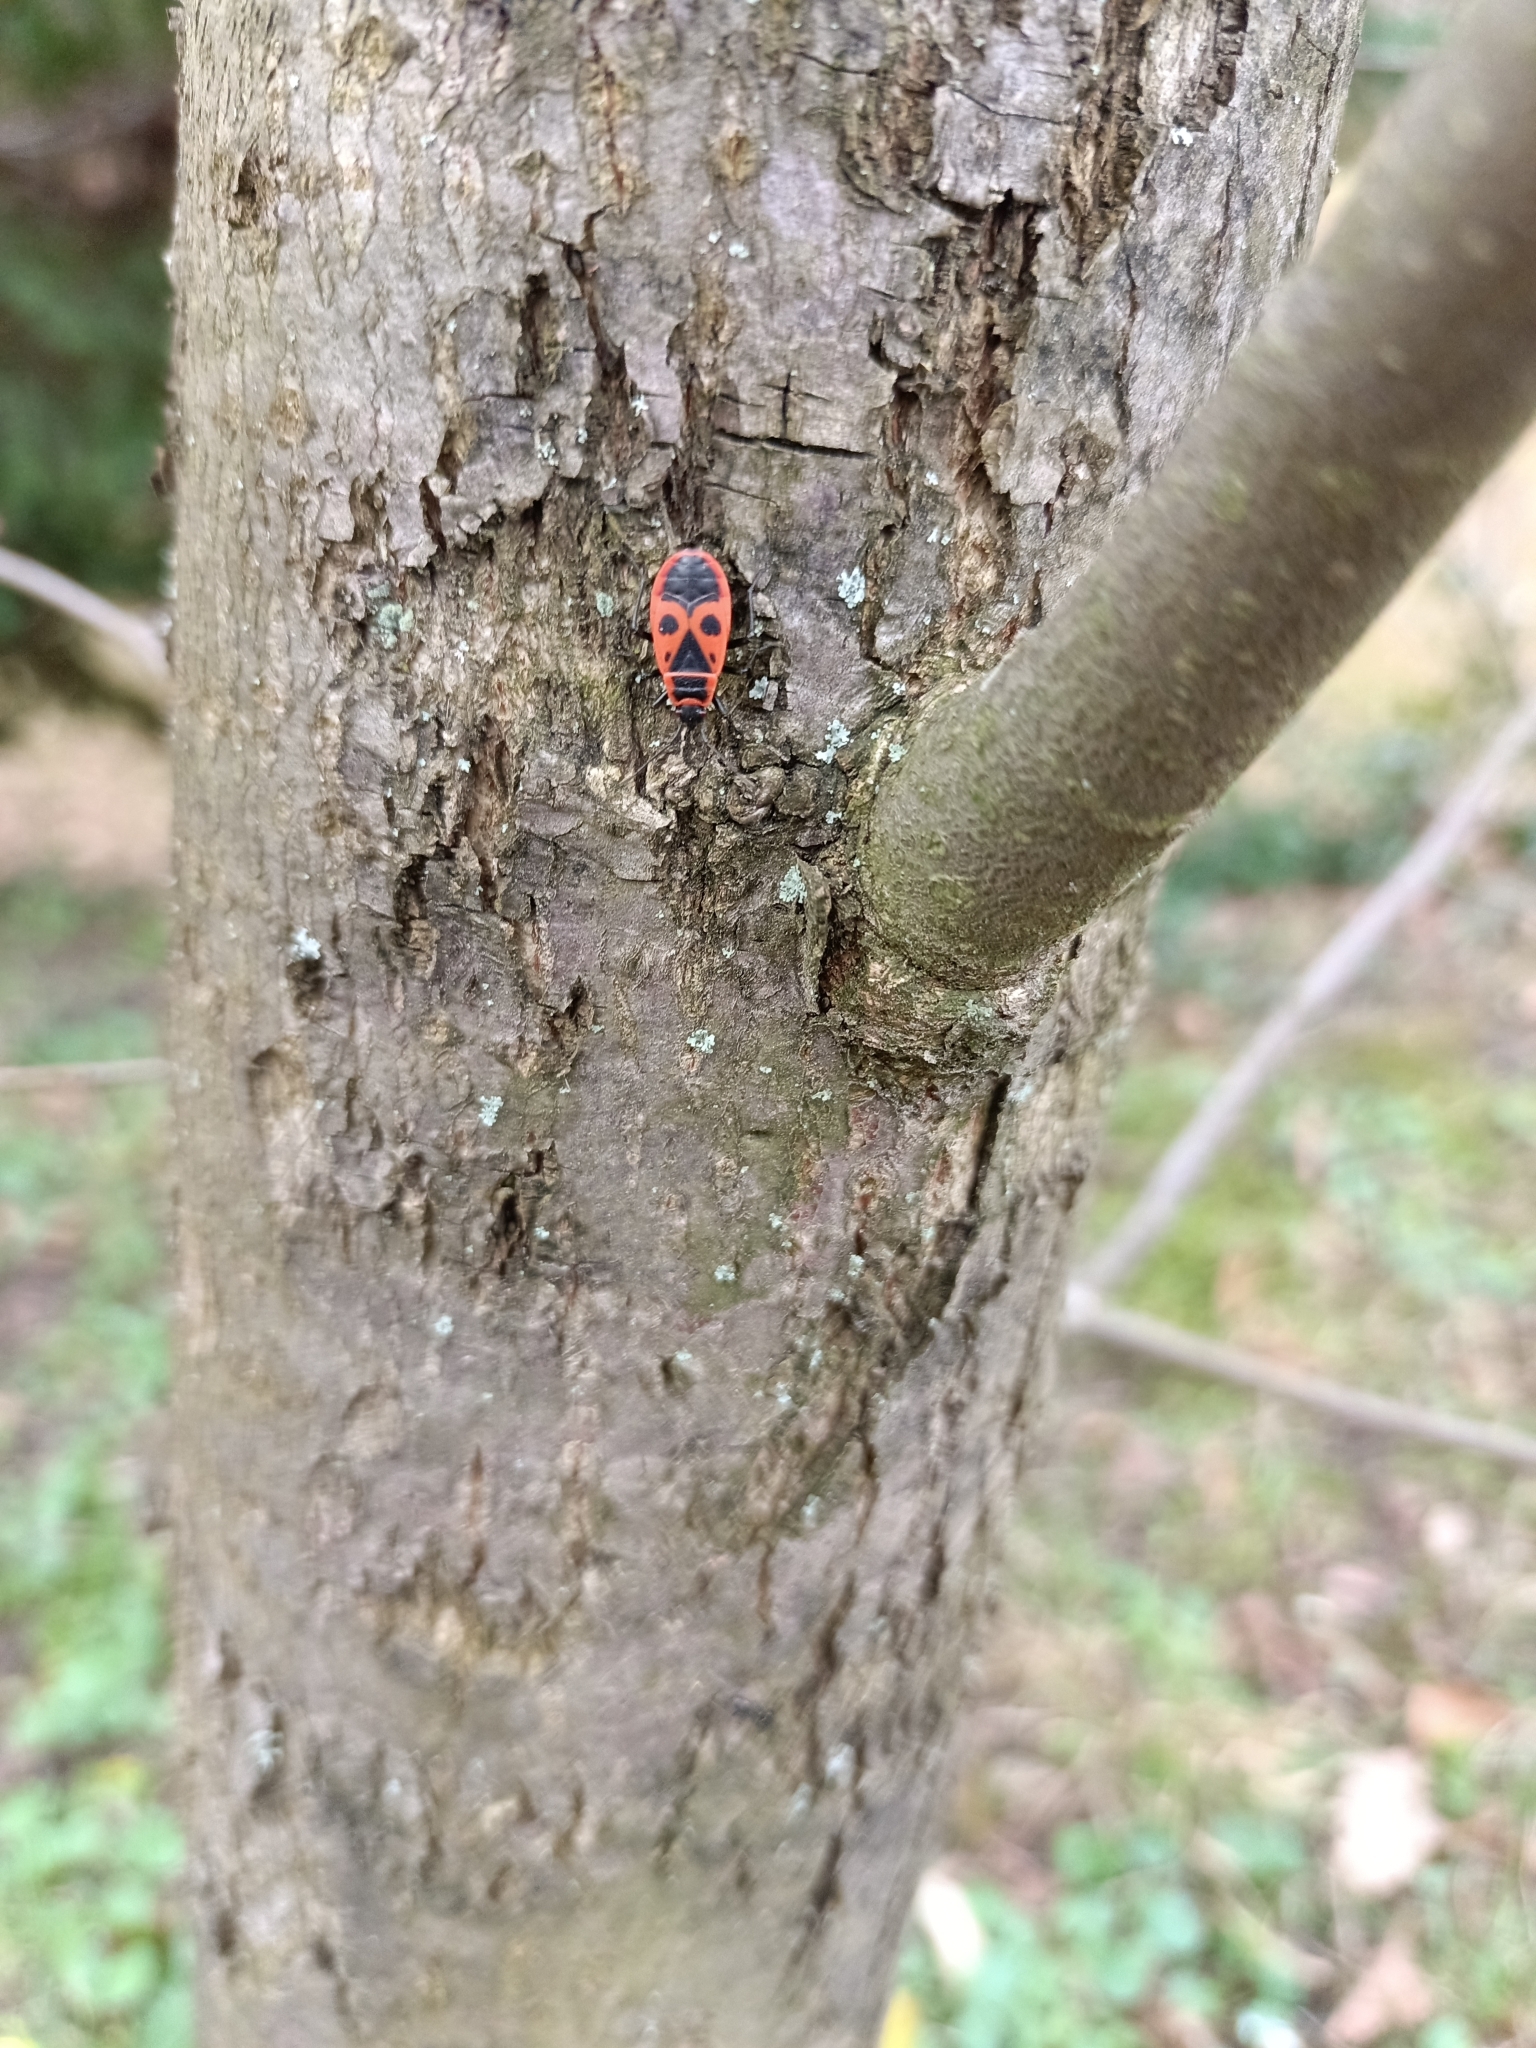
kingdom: Animalia
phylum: Arthropoda
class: Insecta
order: Hemiptera
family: Pyrrhocoridae
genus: Pyrrhocoris
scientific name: Pyrrhocoris apterus
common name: Firebug
